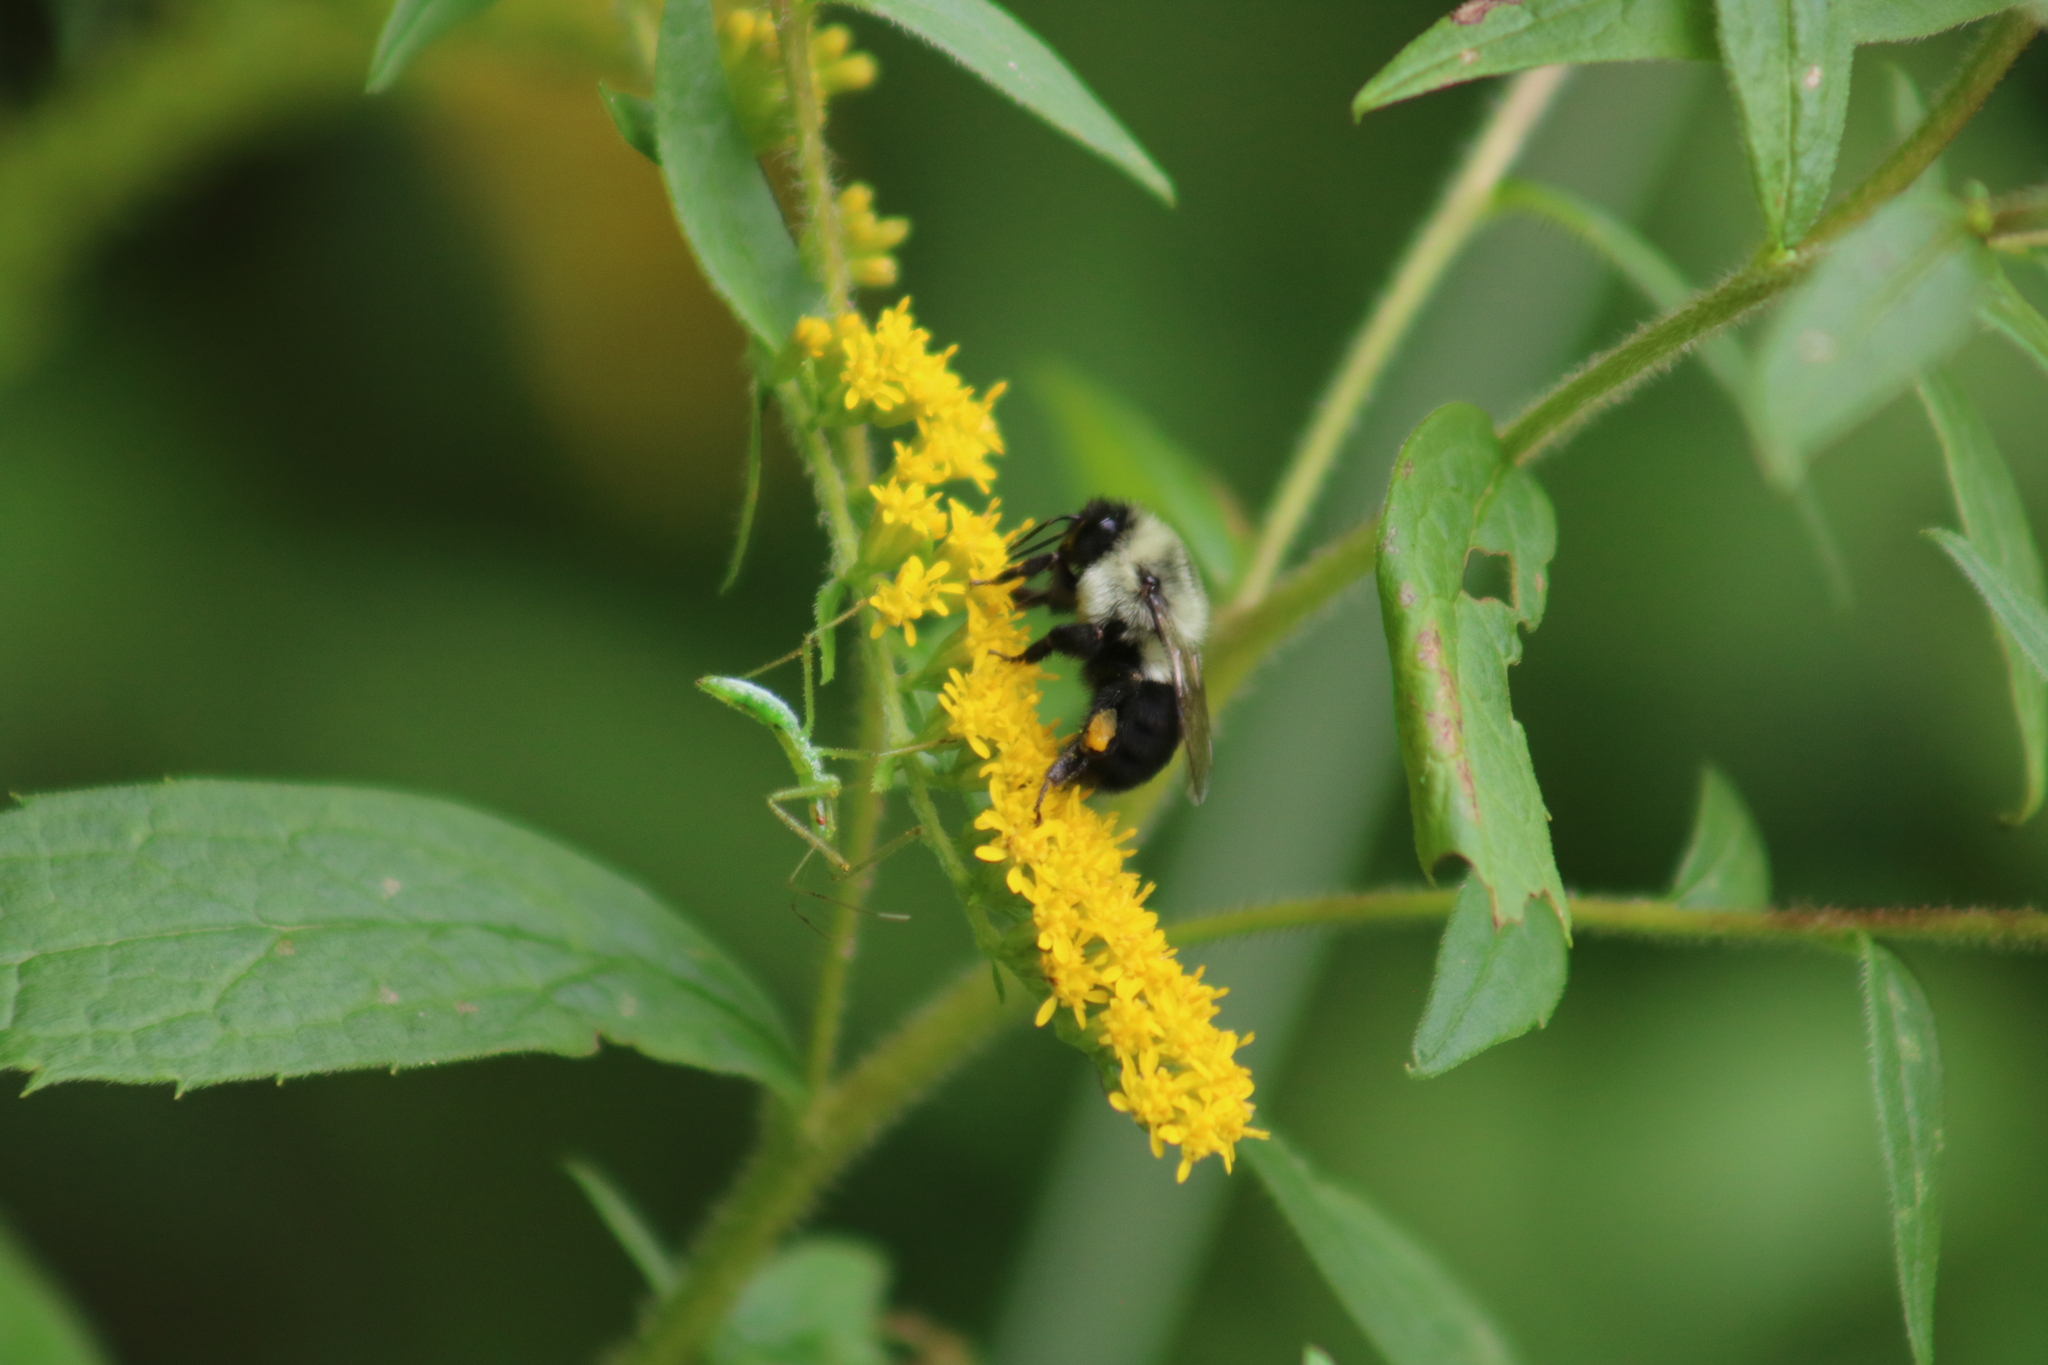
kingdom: Animalia
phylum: Arthropoda
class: Insecta
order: Hymenoptera
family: Apidae
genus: Bombus
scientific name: Bombus impatiens
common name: Common eastern bumble bee
